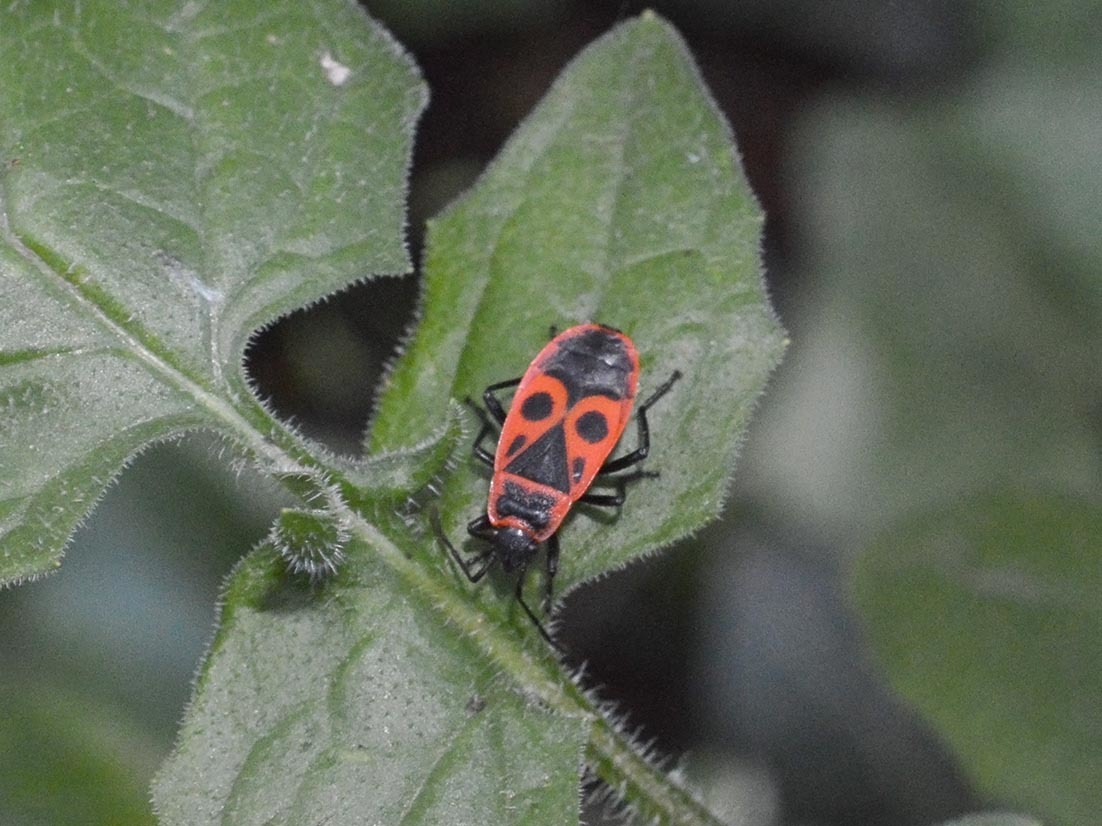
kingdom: Animalia
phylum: Arthropoda
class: Insecta
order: Hemiptera
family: Pyrrhocoridae
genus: Pyrrhocoris
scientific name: Pyrrhocoris apterus
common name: Firebug
